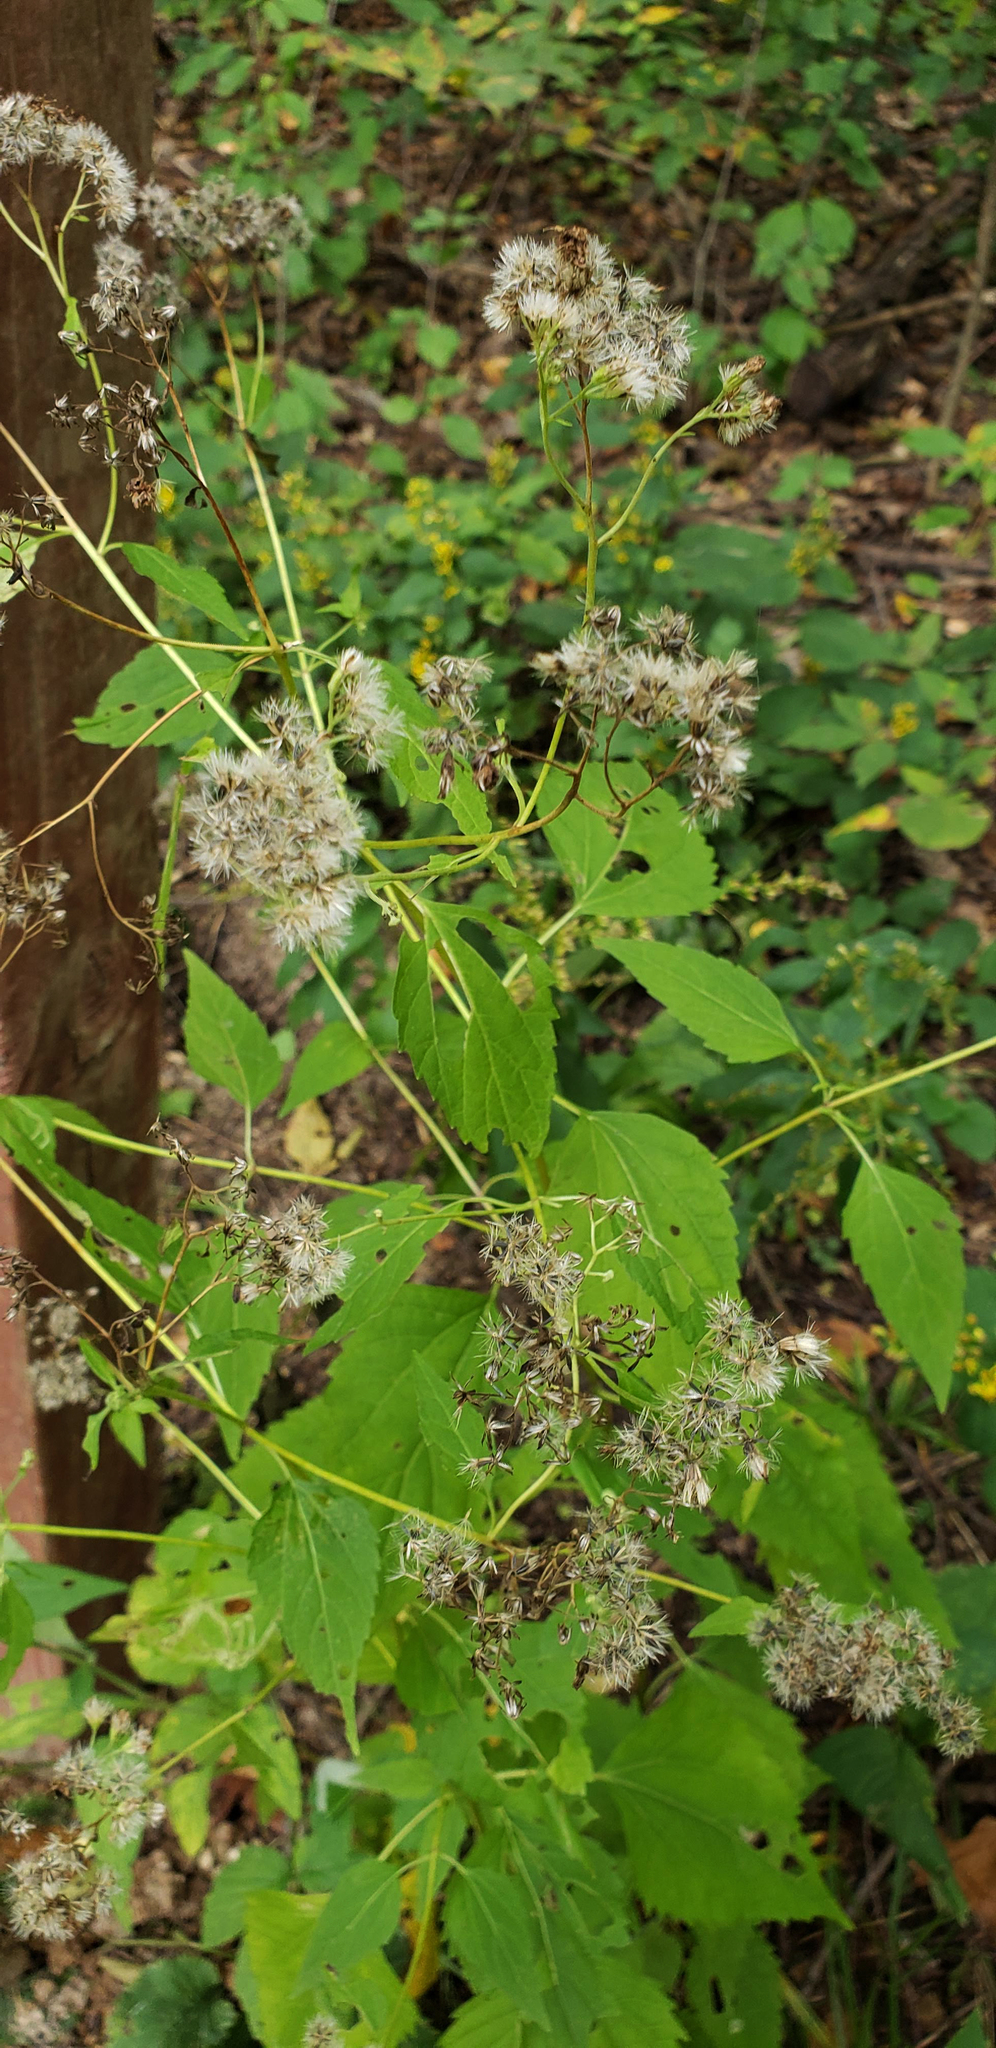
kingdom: Plantae
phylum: Tracheophyta
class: Magnoliopsida
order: Asterales
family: Asteraceae
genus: Ageratina
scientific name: Ageratina altissima
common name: White snakeroot
